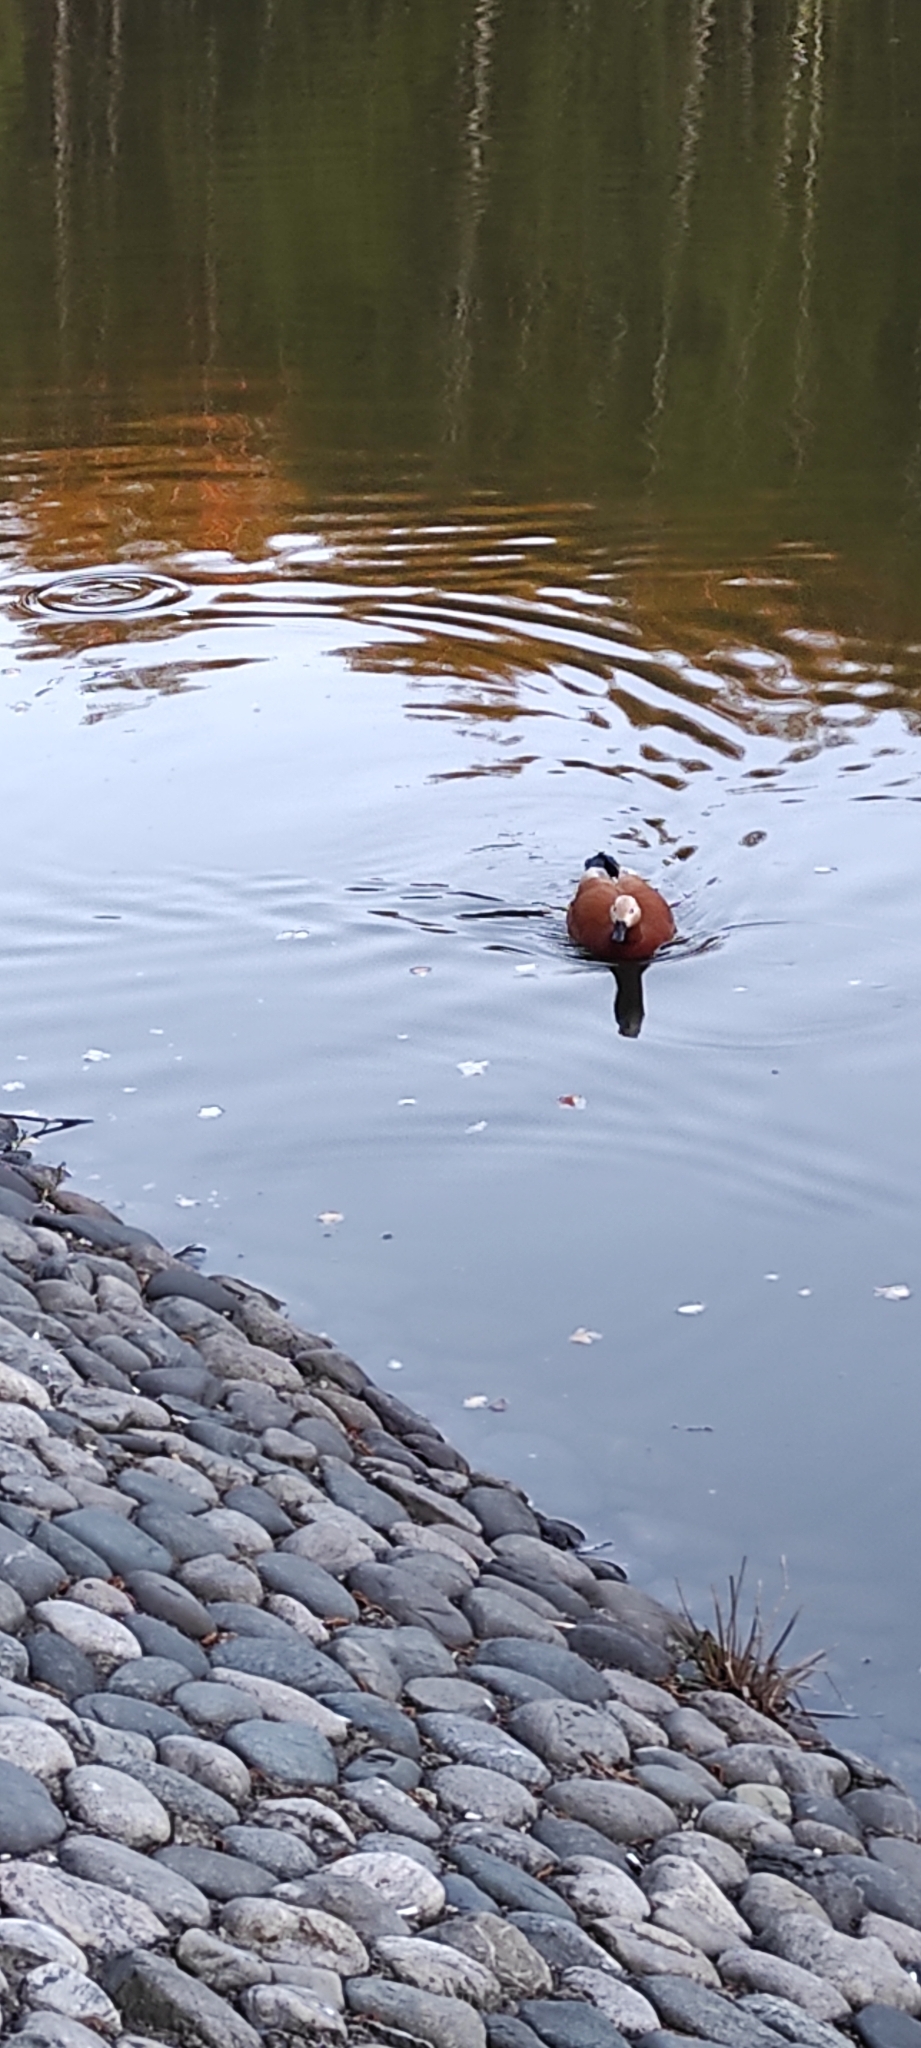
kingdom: Animalia
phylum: Chordata
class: Aves
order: Anseriformes
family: Anatidae
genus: Tadorna
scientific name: Tadorna ferruginea
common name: Ruddy shelduck
